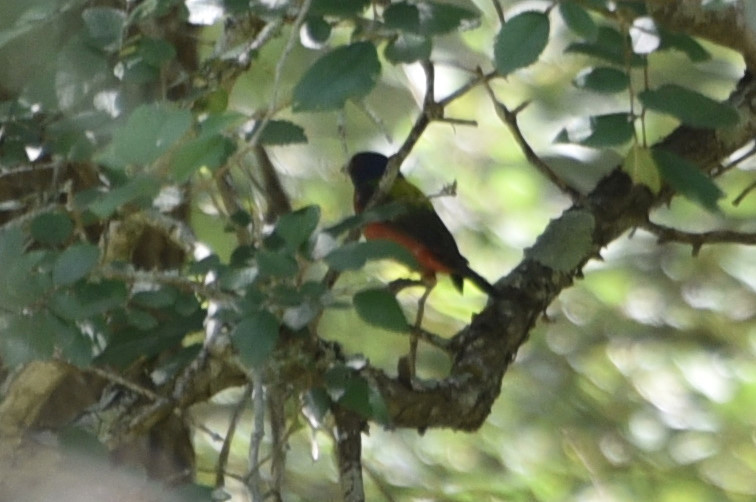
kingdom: Animalia
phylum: Chordata
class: Aves
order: Passeriformes
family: Cardinalidae
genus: Passerina
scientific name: Passerina ciris
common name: Painted bunting
